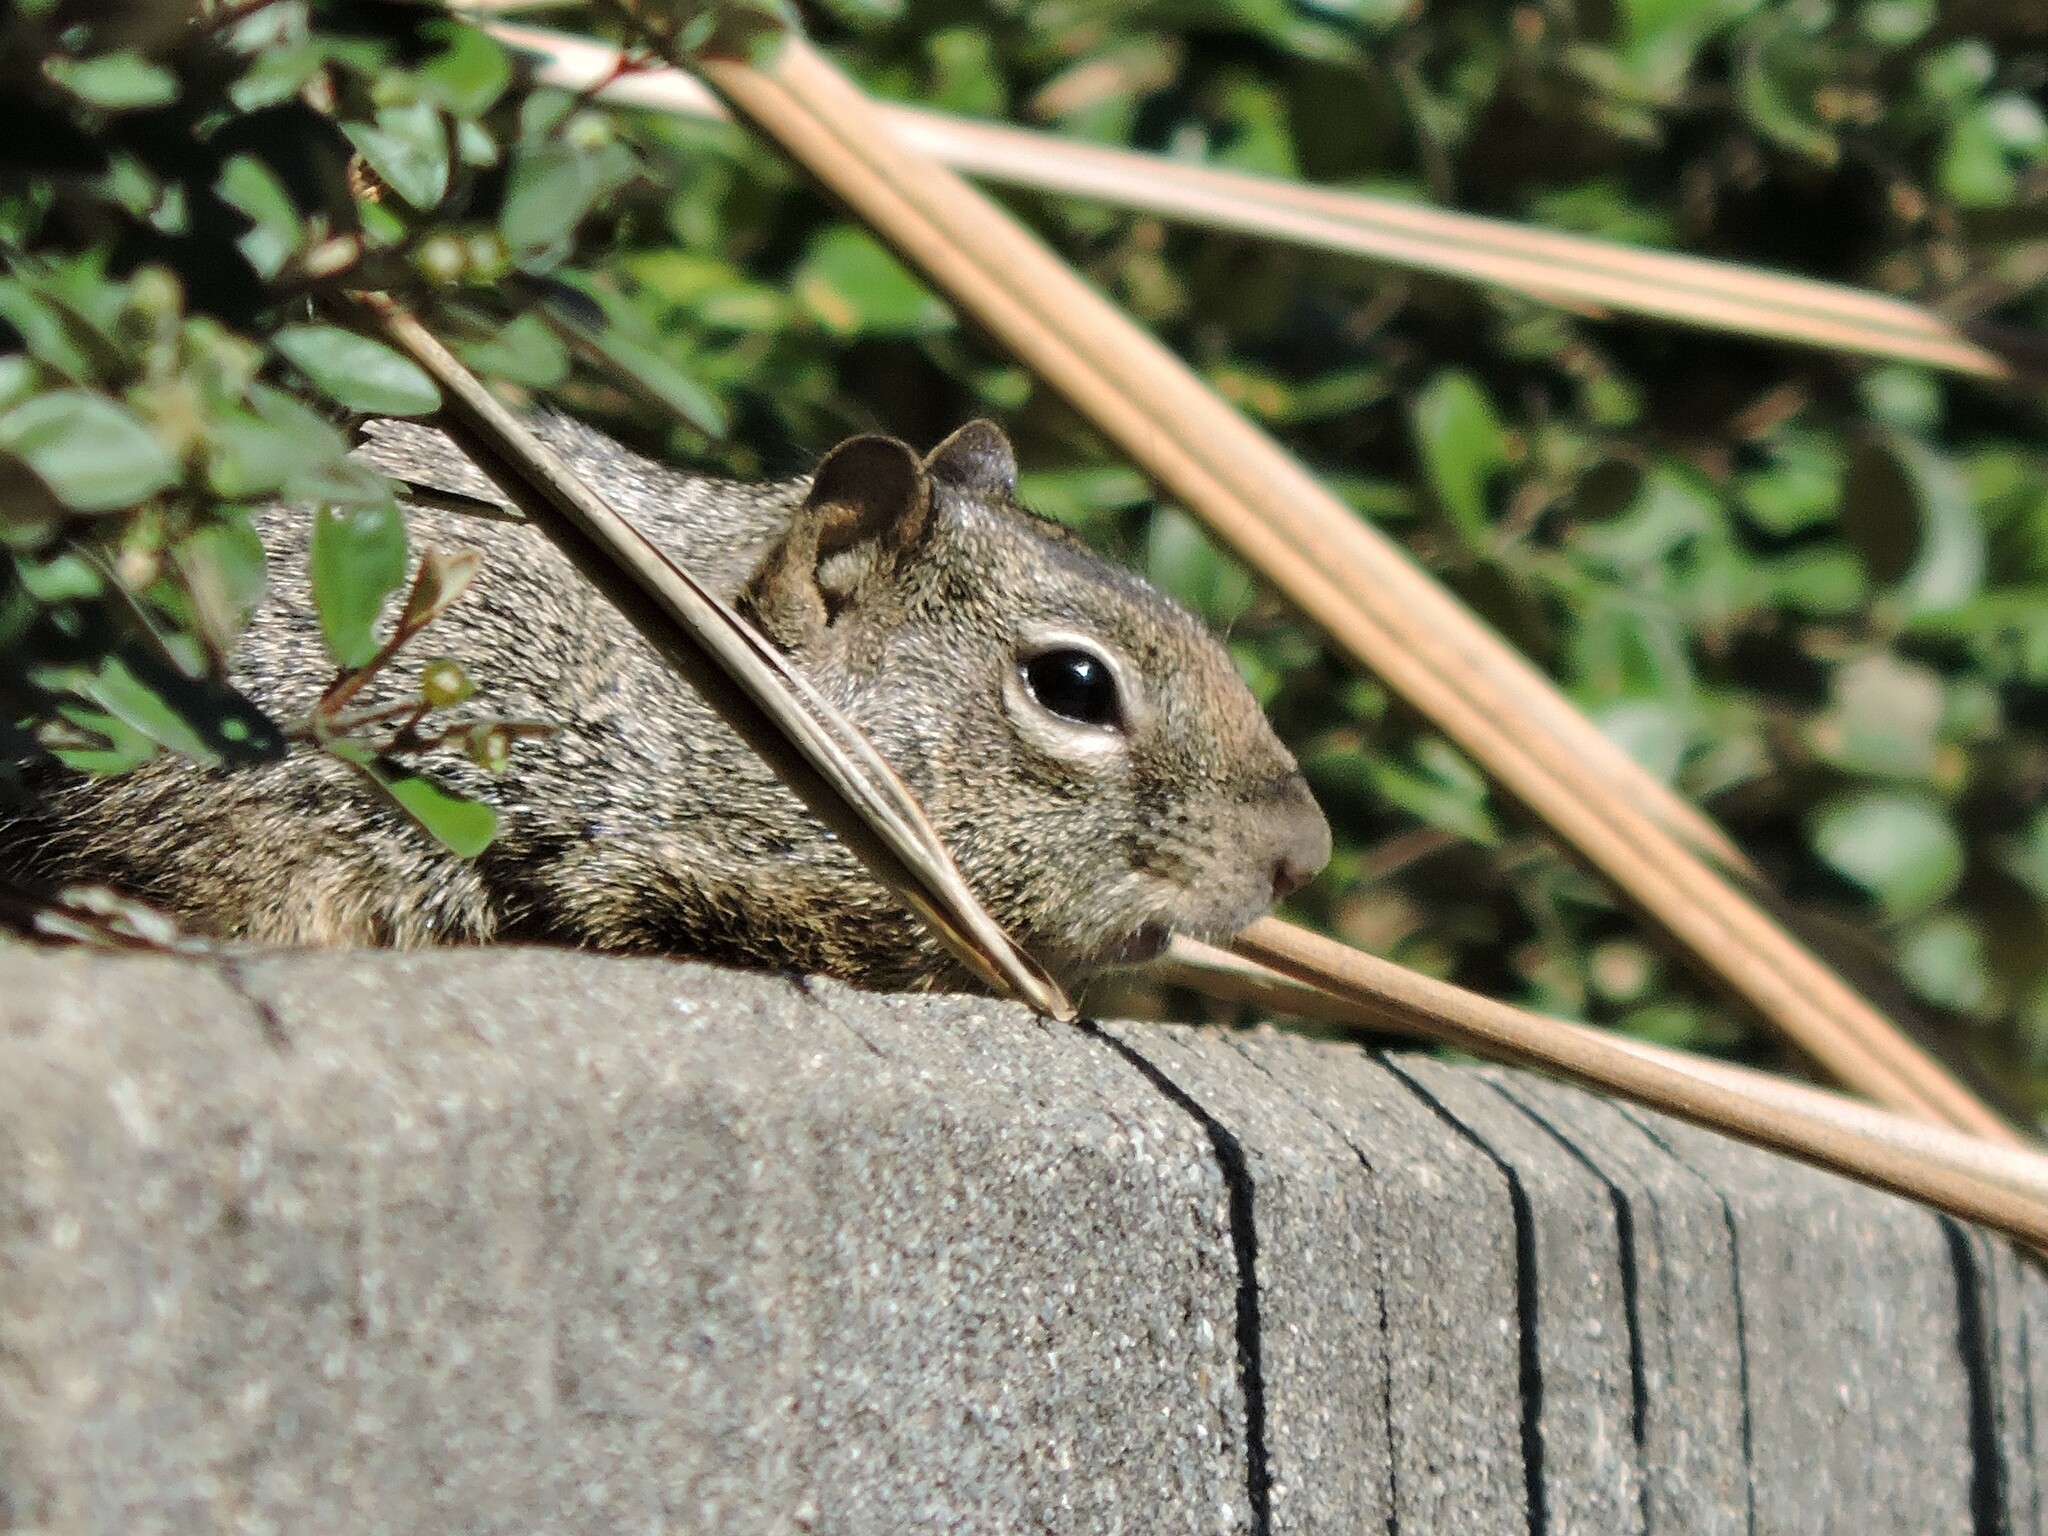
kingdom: Animalia
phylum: Chordata
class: Mammalia
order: Rodentia
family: Sciuridae
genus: Otospermophilus
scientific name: Otospermophilus beecheyi
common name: California ground squirrel
